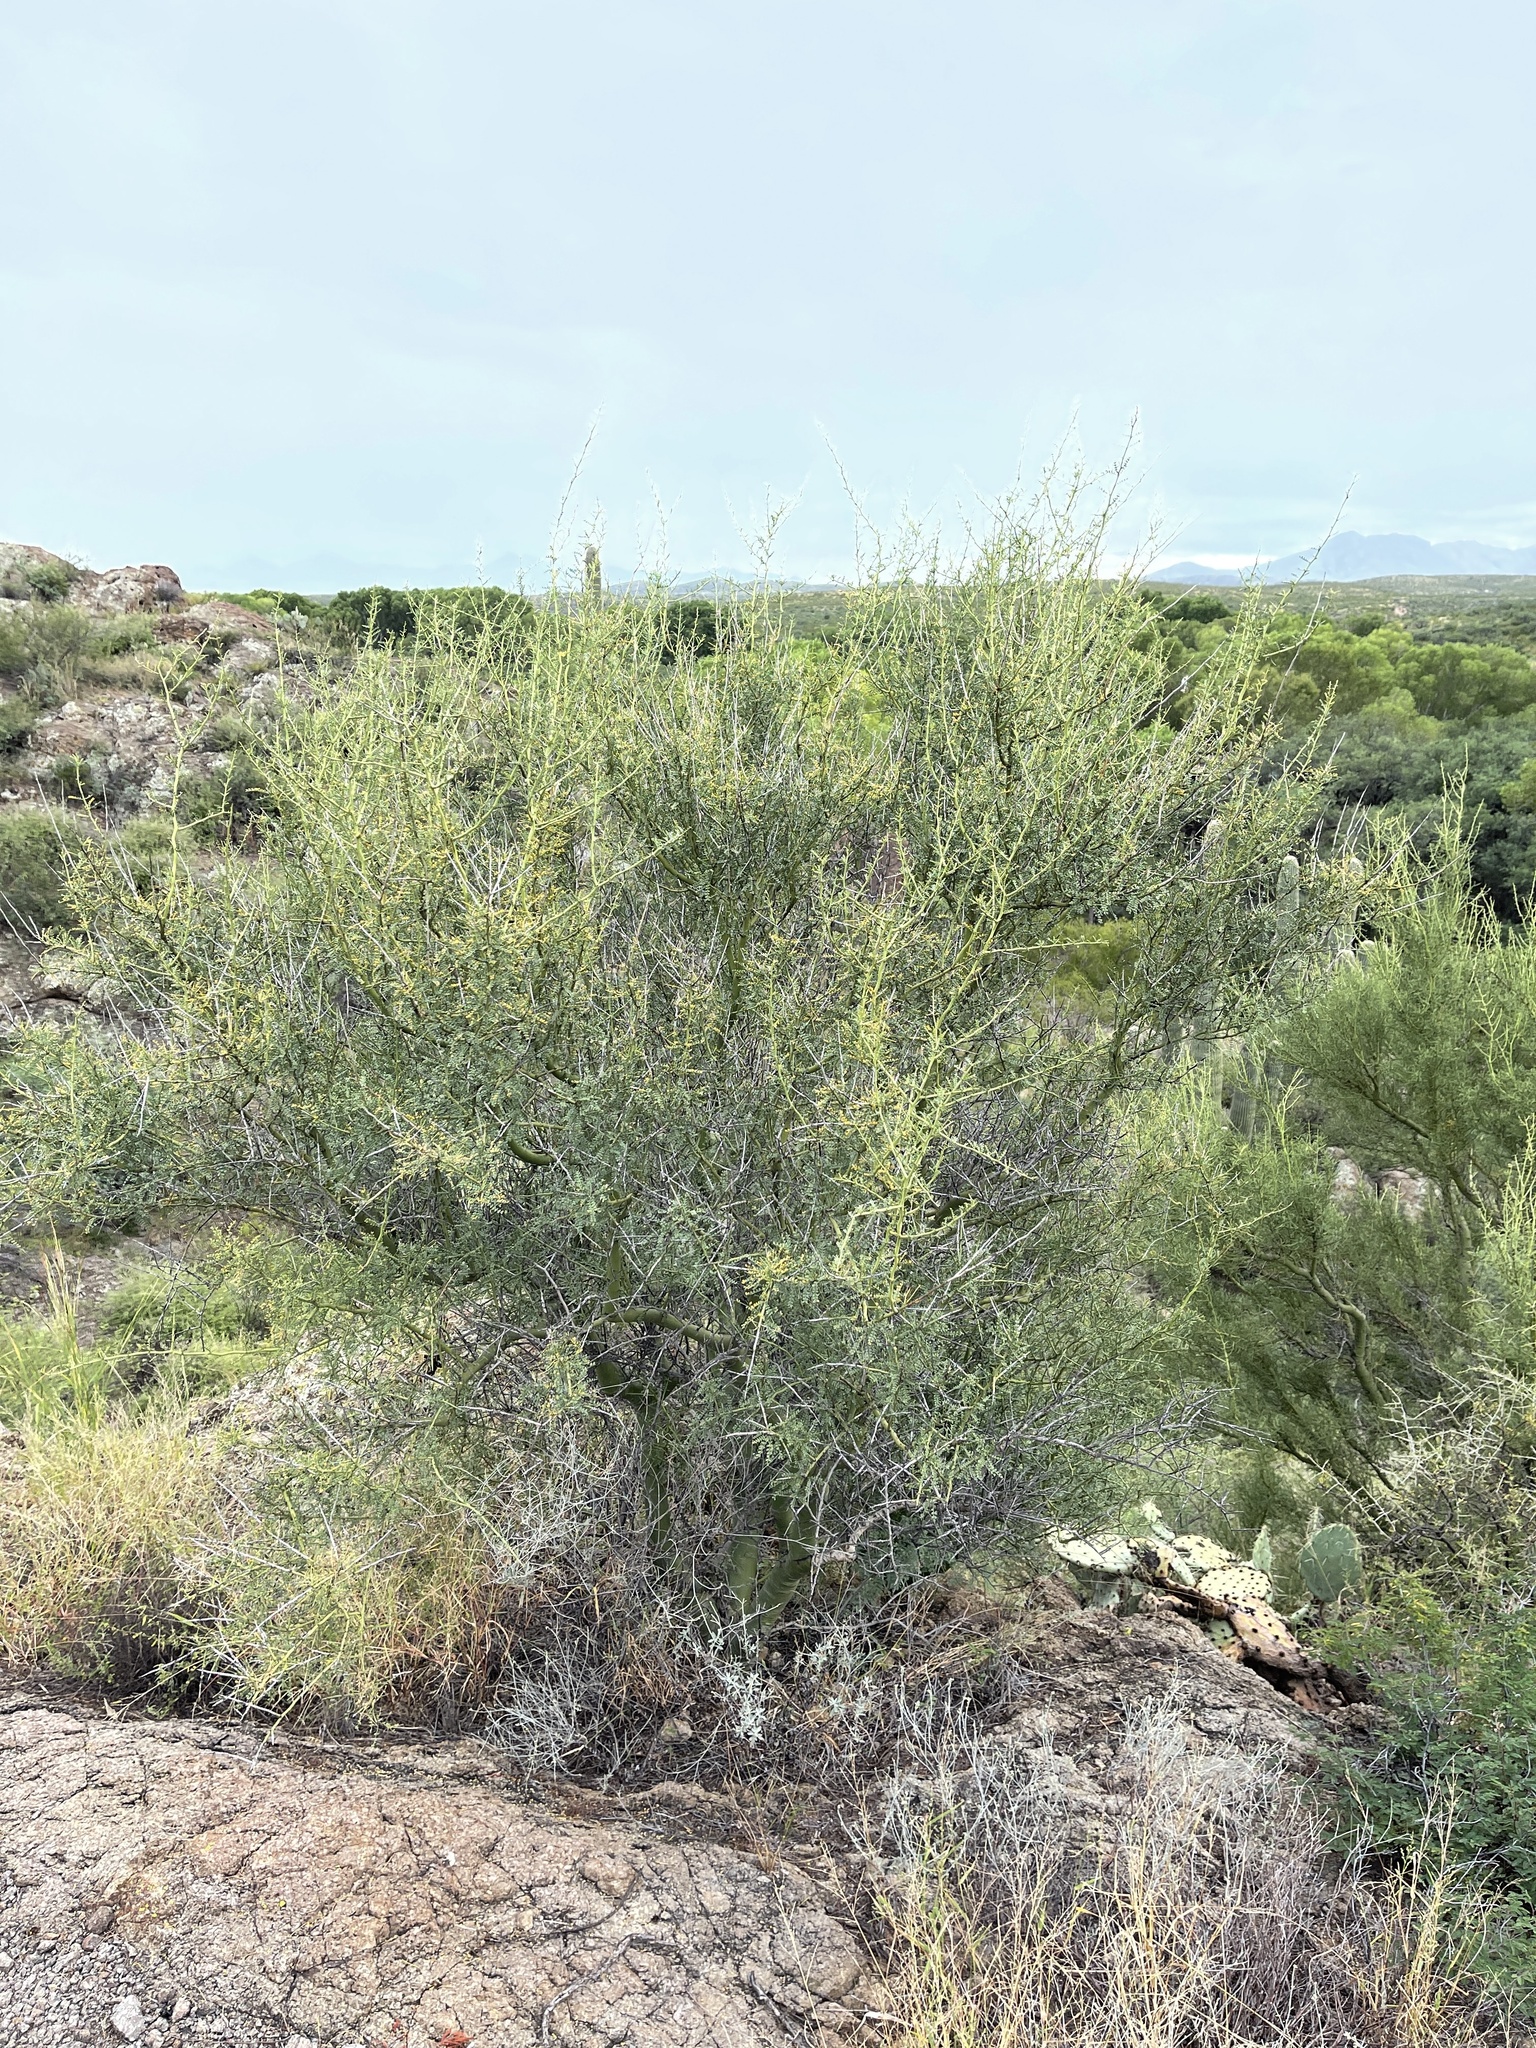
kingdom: Plantae
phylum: Tracheophyta
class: Magnoliopsida
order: Fabales
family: Fabaceae
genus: Parkinsonia
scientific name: Parkinsonia microphylla
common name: Yellow paloverde
